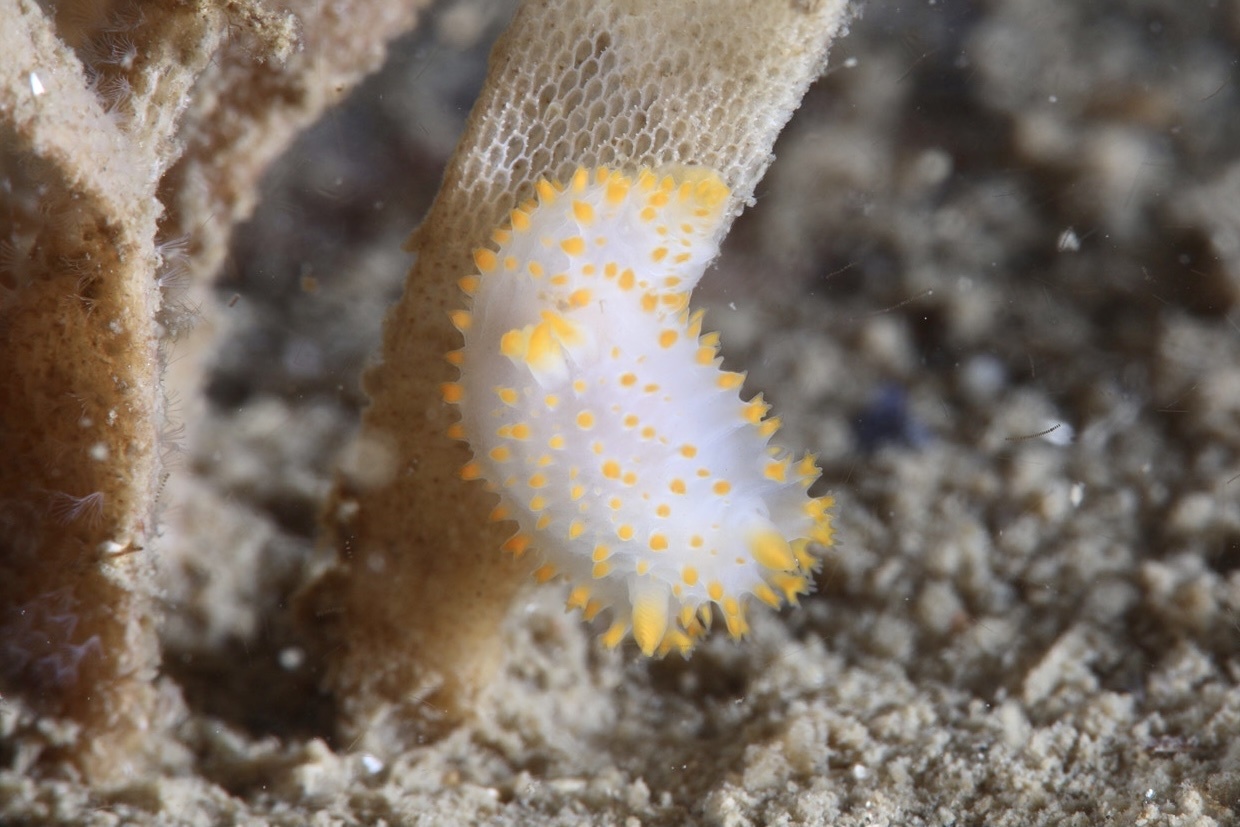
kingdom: Animalia
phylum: Mollusca
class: Gastropoda
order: Nudibranchia
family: Polyceridae
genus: Crimora
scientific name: Crimora papillata
